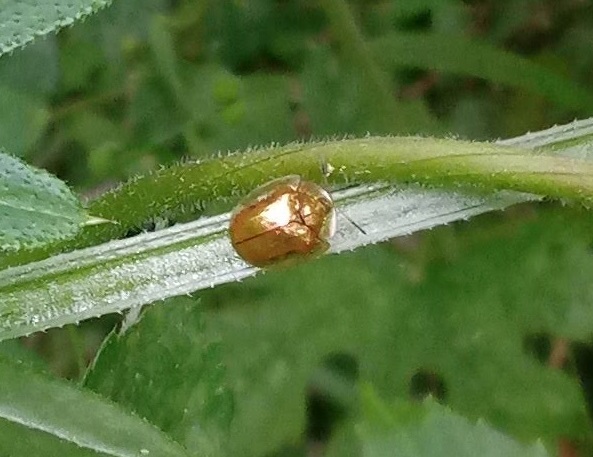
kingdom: Animalia
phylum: Arthropoda
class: Insecta
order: Coleoptera
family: Chrysomelidae
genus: Charidotella
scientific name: Charidotella sexpunctata
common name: Golden tortoise beetle
